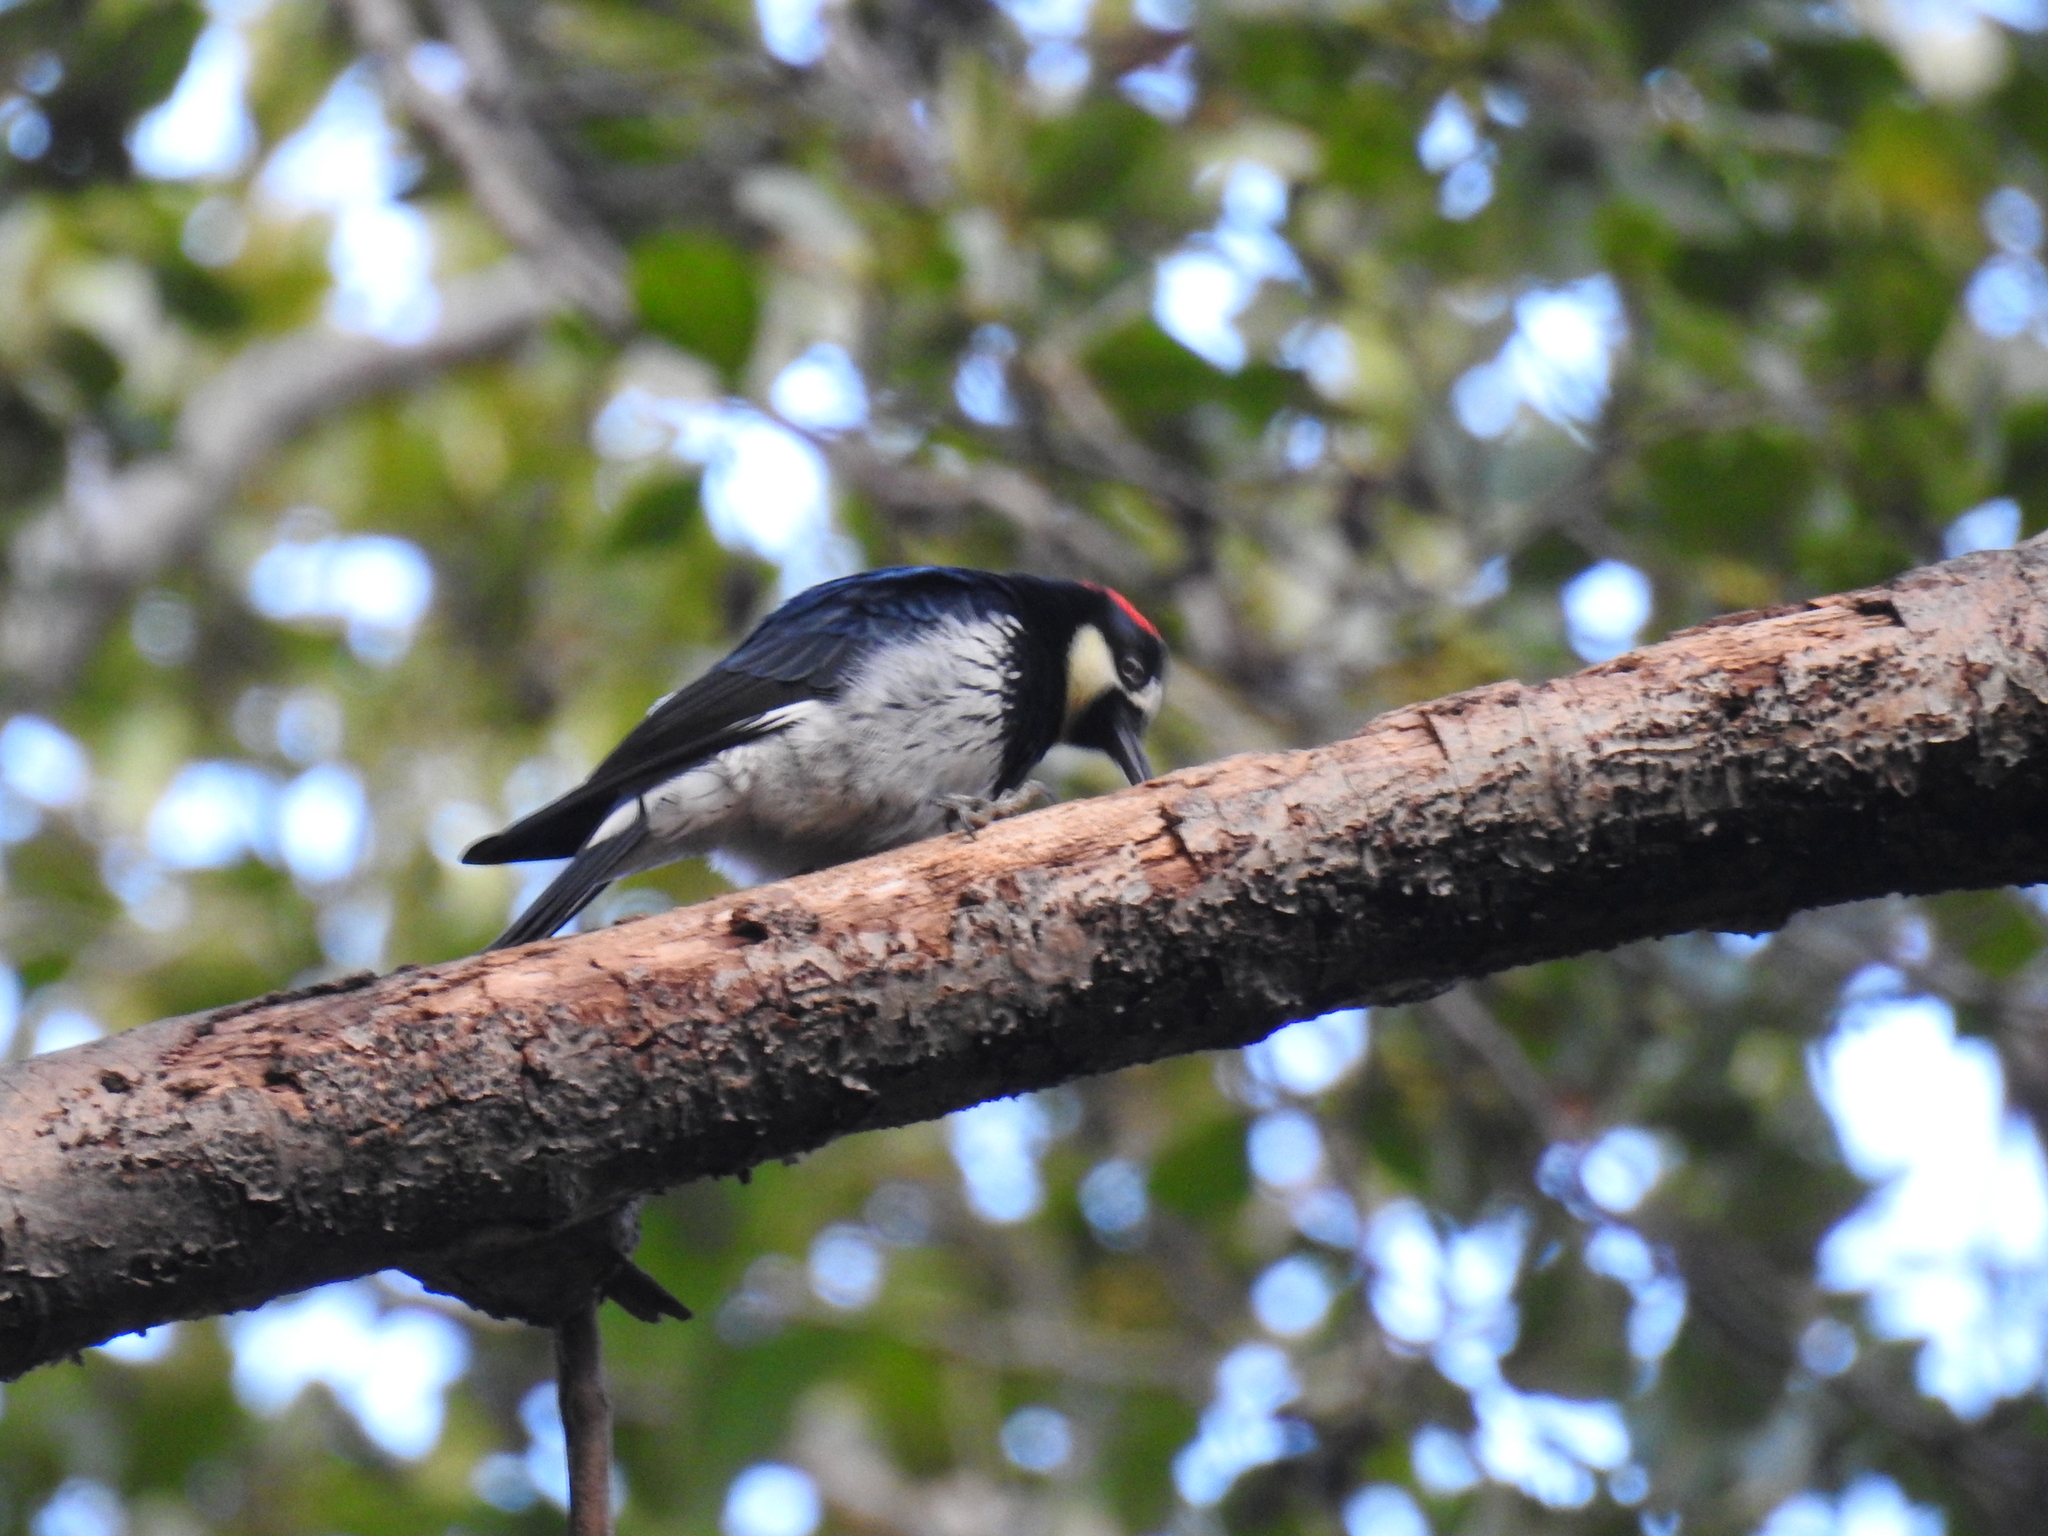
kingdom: Animalia
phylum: Chordata
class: Aves
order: Piciformes
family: Picidae
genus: Melanerpes
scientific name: Melanerpes formicivorus
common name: Acorn woodpecker
